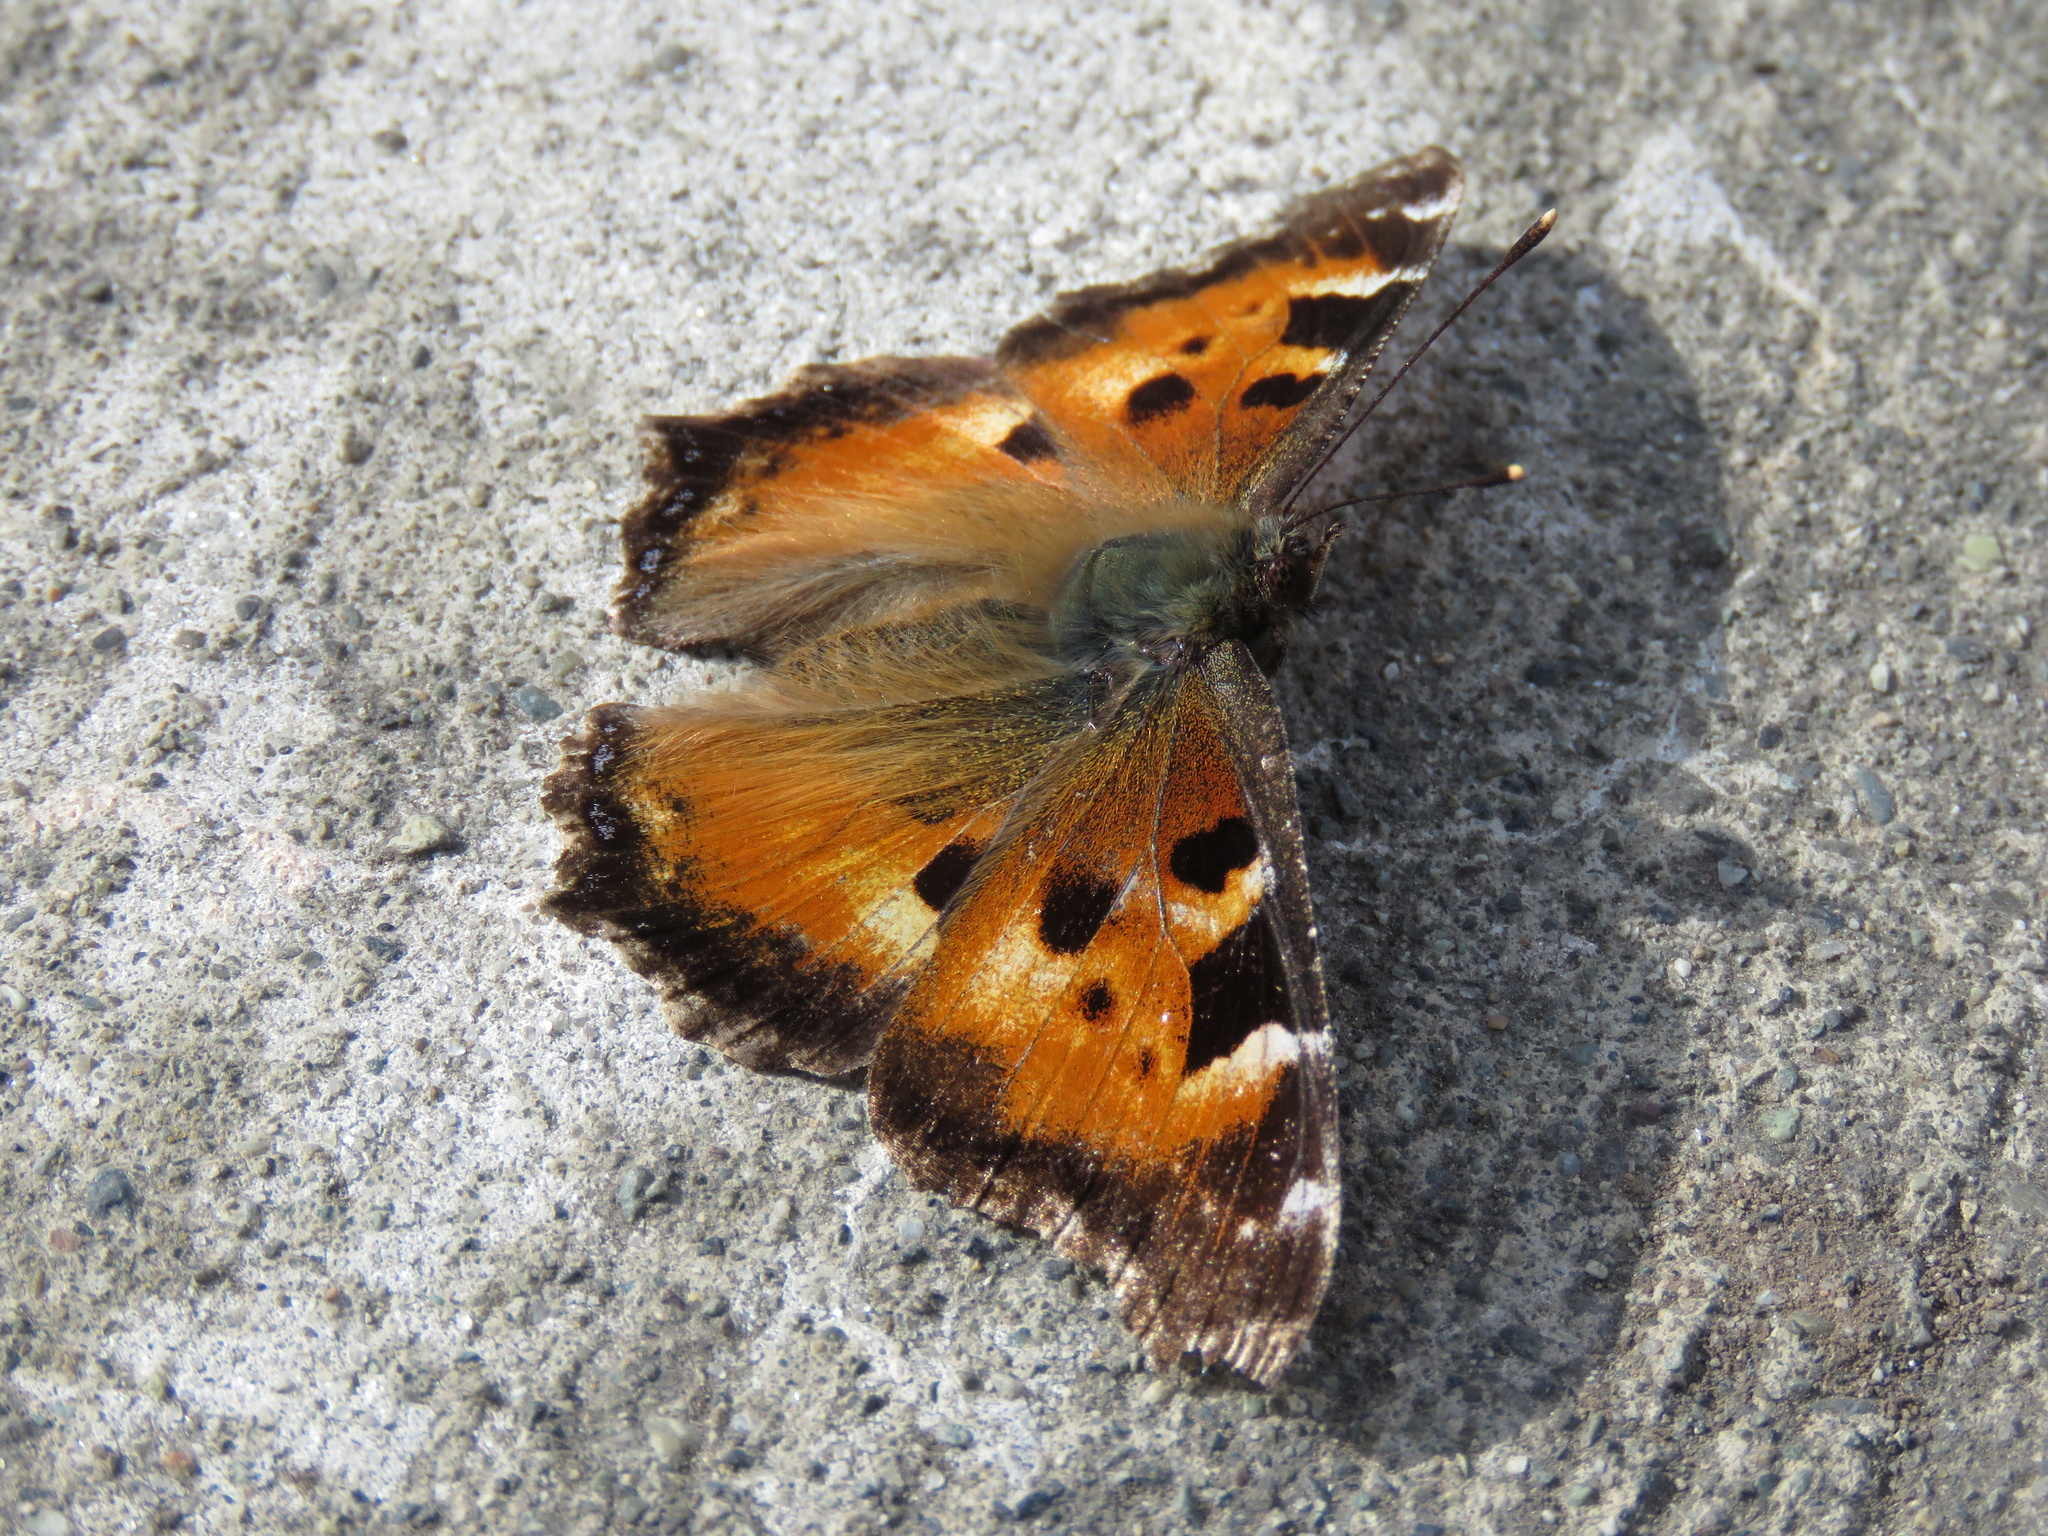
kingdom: Animalia
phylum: Arthropoda
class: Insecta
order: Lepidoptera
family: Nymphalidae
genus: Nymphalis
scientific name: Nymphalis californica
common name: California tortoiseshell
